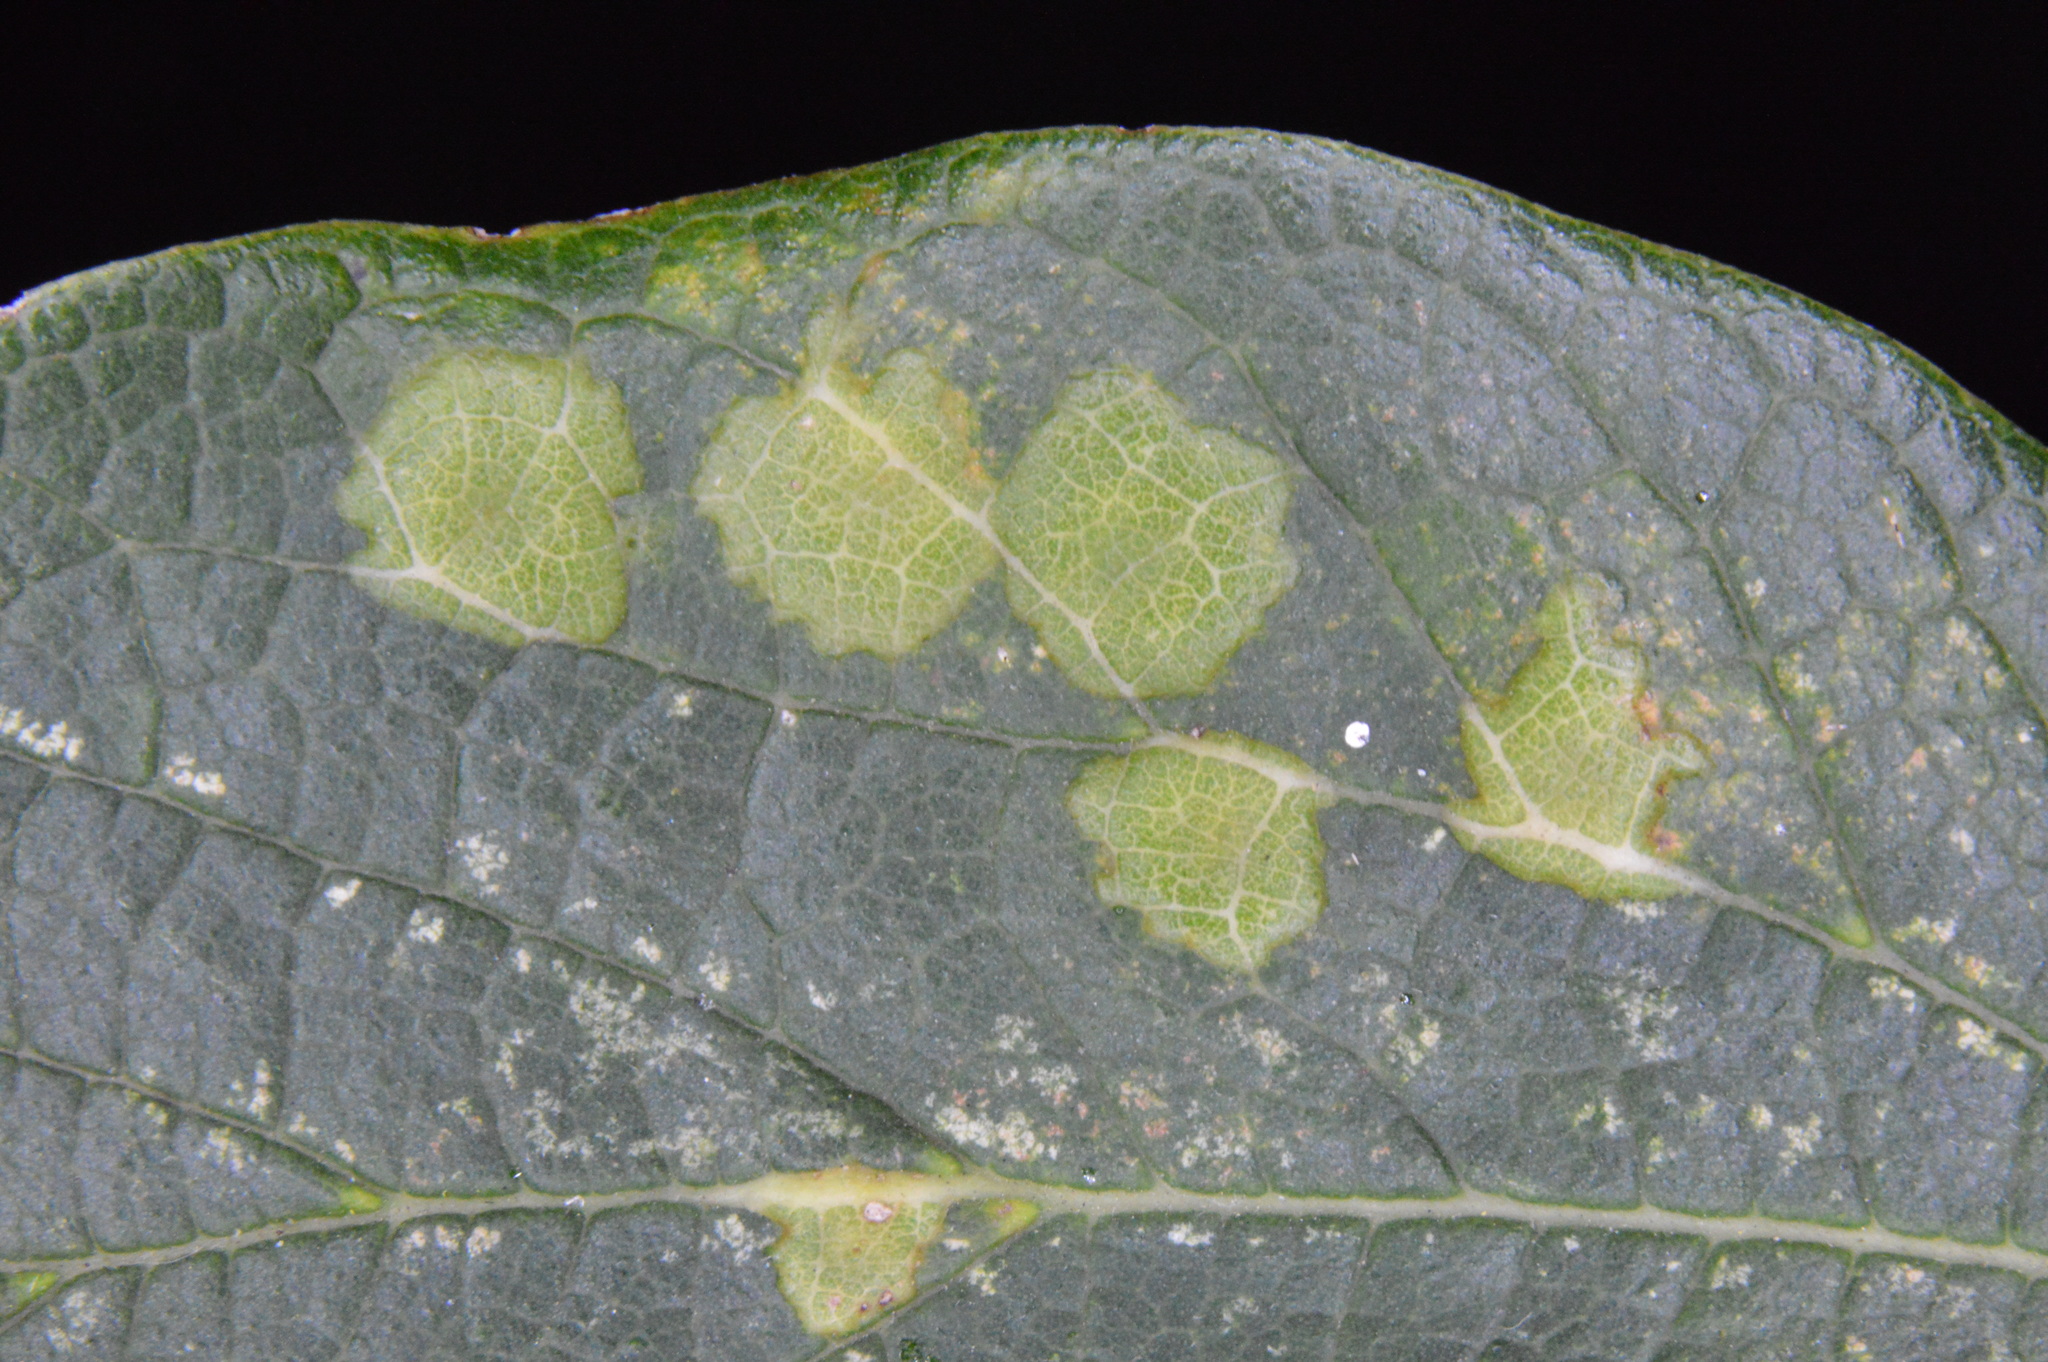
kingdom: Animalia
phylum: Arthropoda
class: Insecta
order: Hemiptera
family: Aphalaridae
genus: Pachypsylla
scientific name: Pachypsylla celtidisvesicula
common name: Hackberry blister gall psyllid
